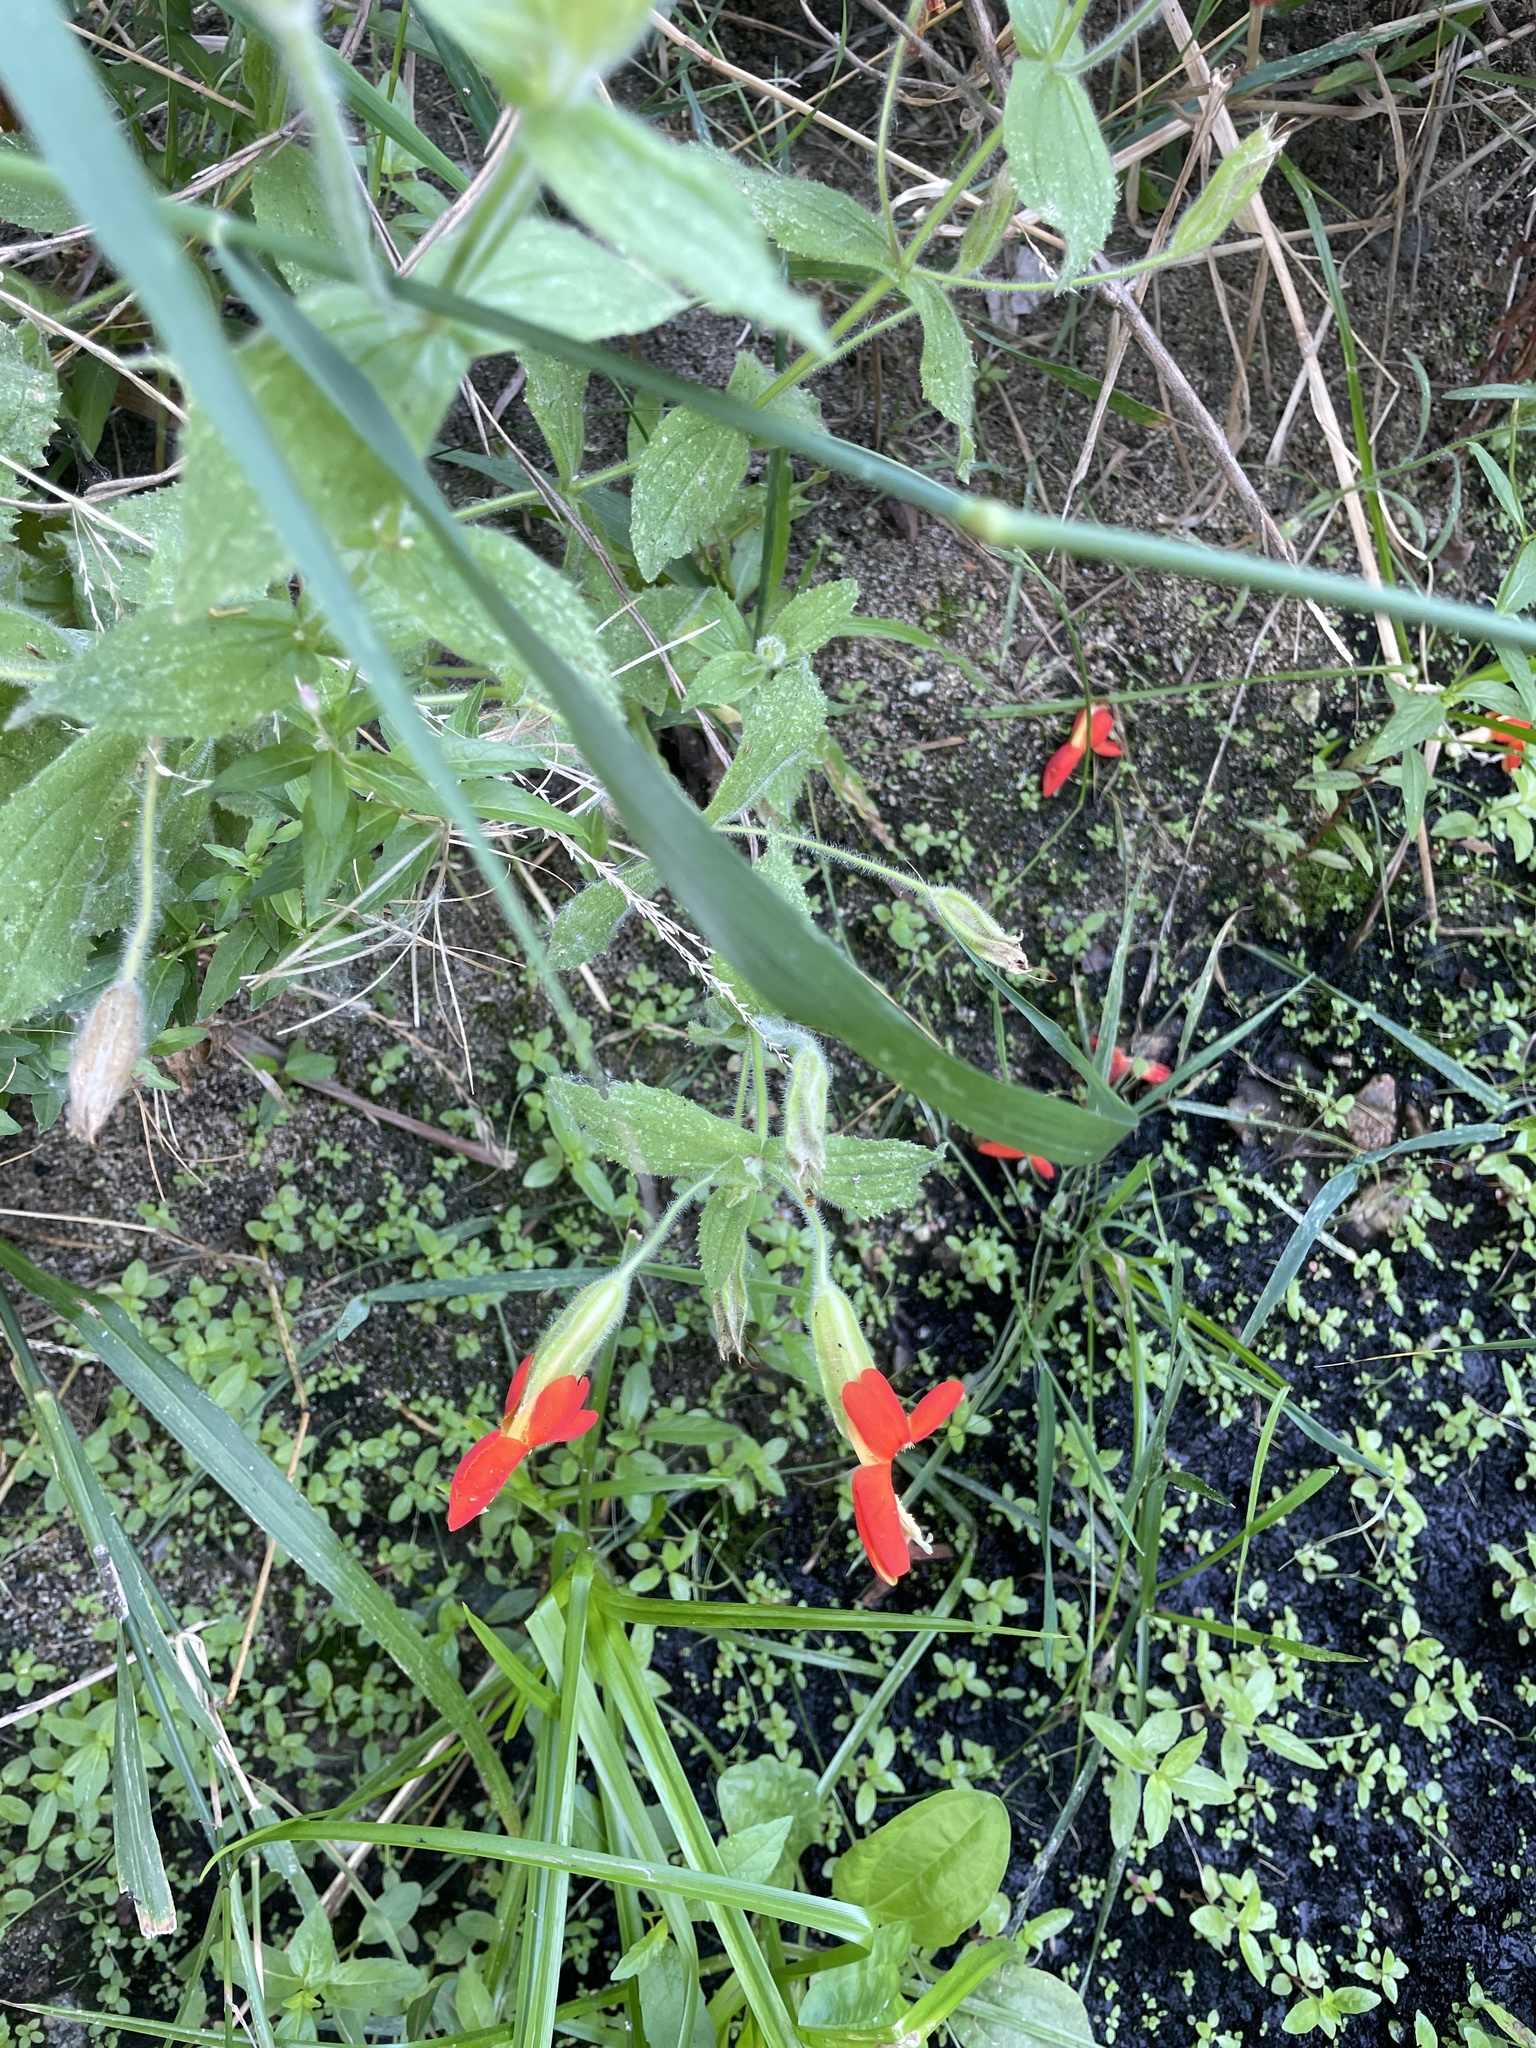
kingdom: Plantae
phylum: Tracheophyta
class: Magnoliopsida
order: Lamiales
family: Phrymaceae
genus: Erythranthe
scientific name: Erythranthe cardinalis
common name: Scarlet monkey-flower
